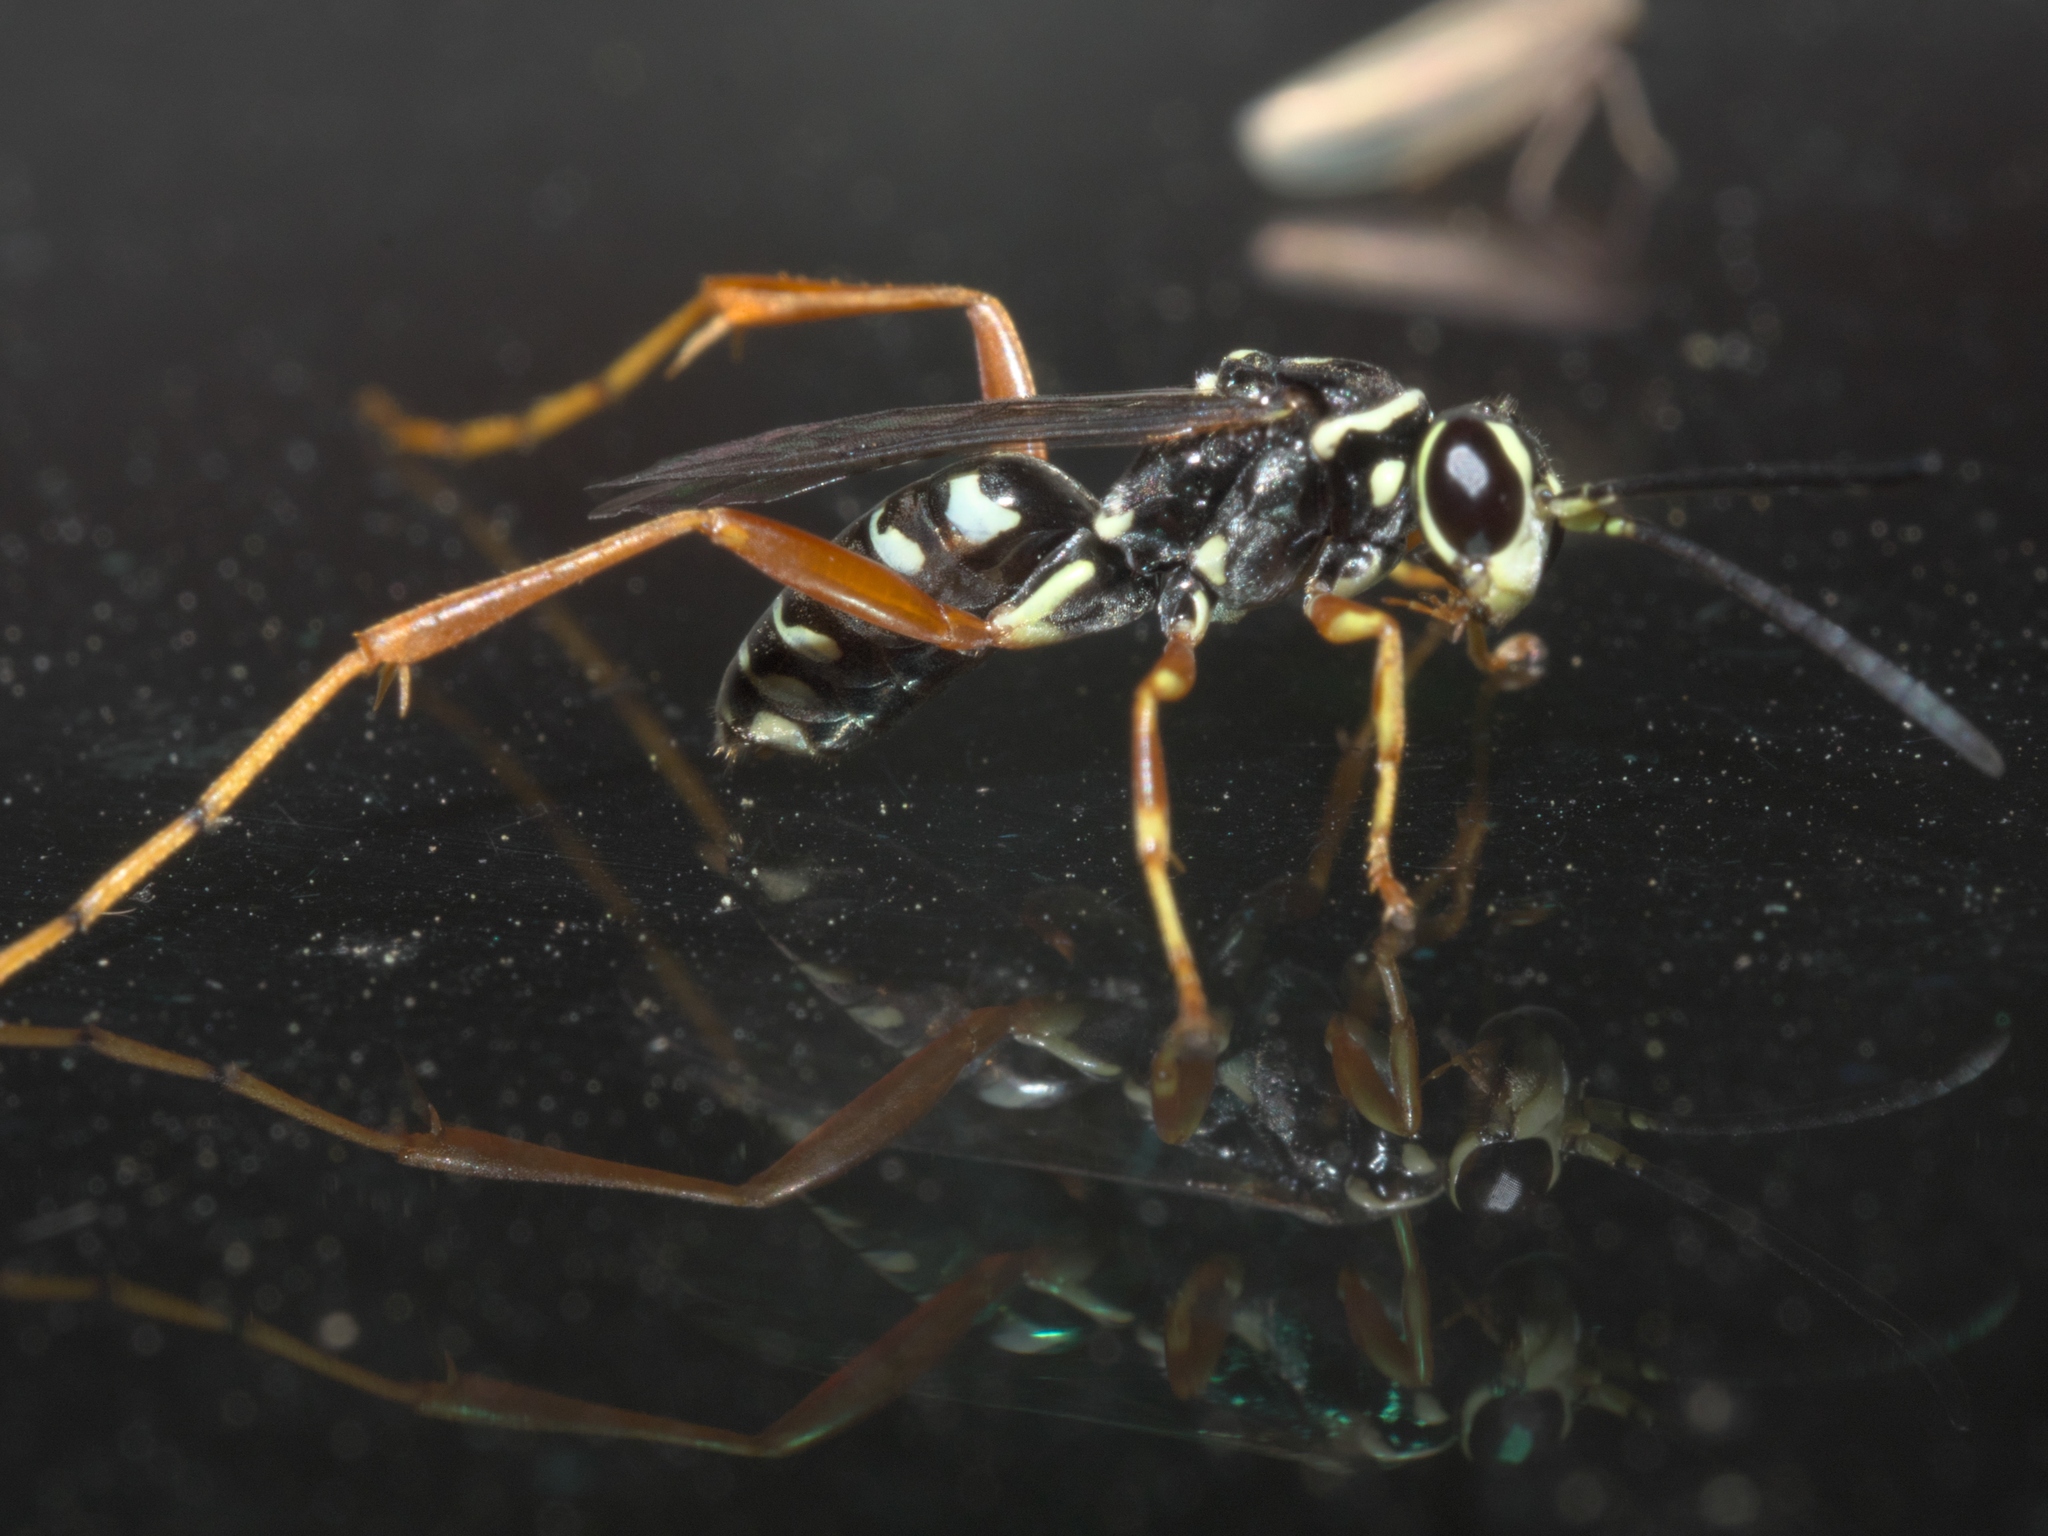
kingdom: Animalia
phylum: Arthropoda
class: Insecta
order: Hymenoptera
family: Pompilidae
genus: Ceropales
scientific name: Ceropales maculata
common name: Spider wasp
